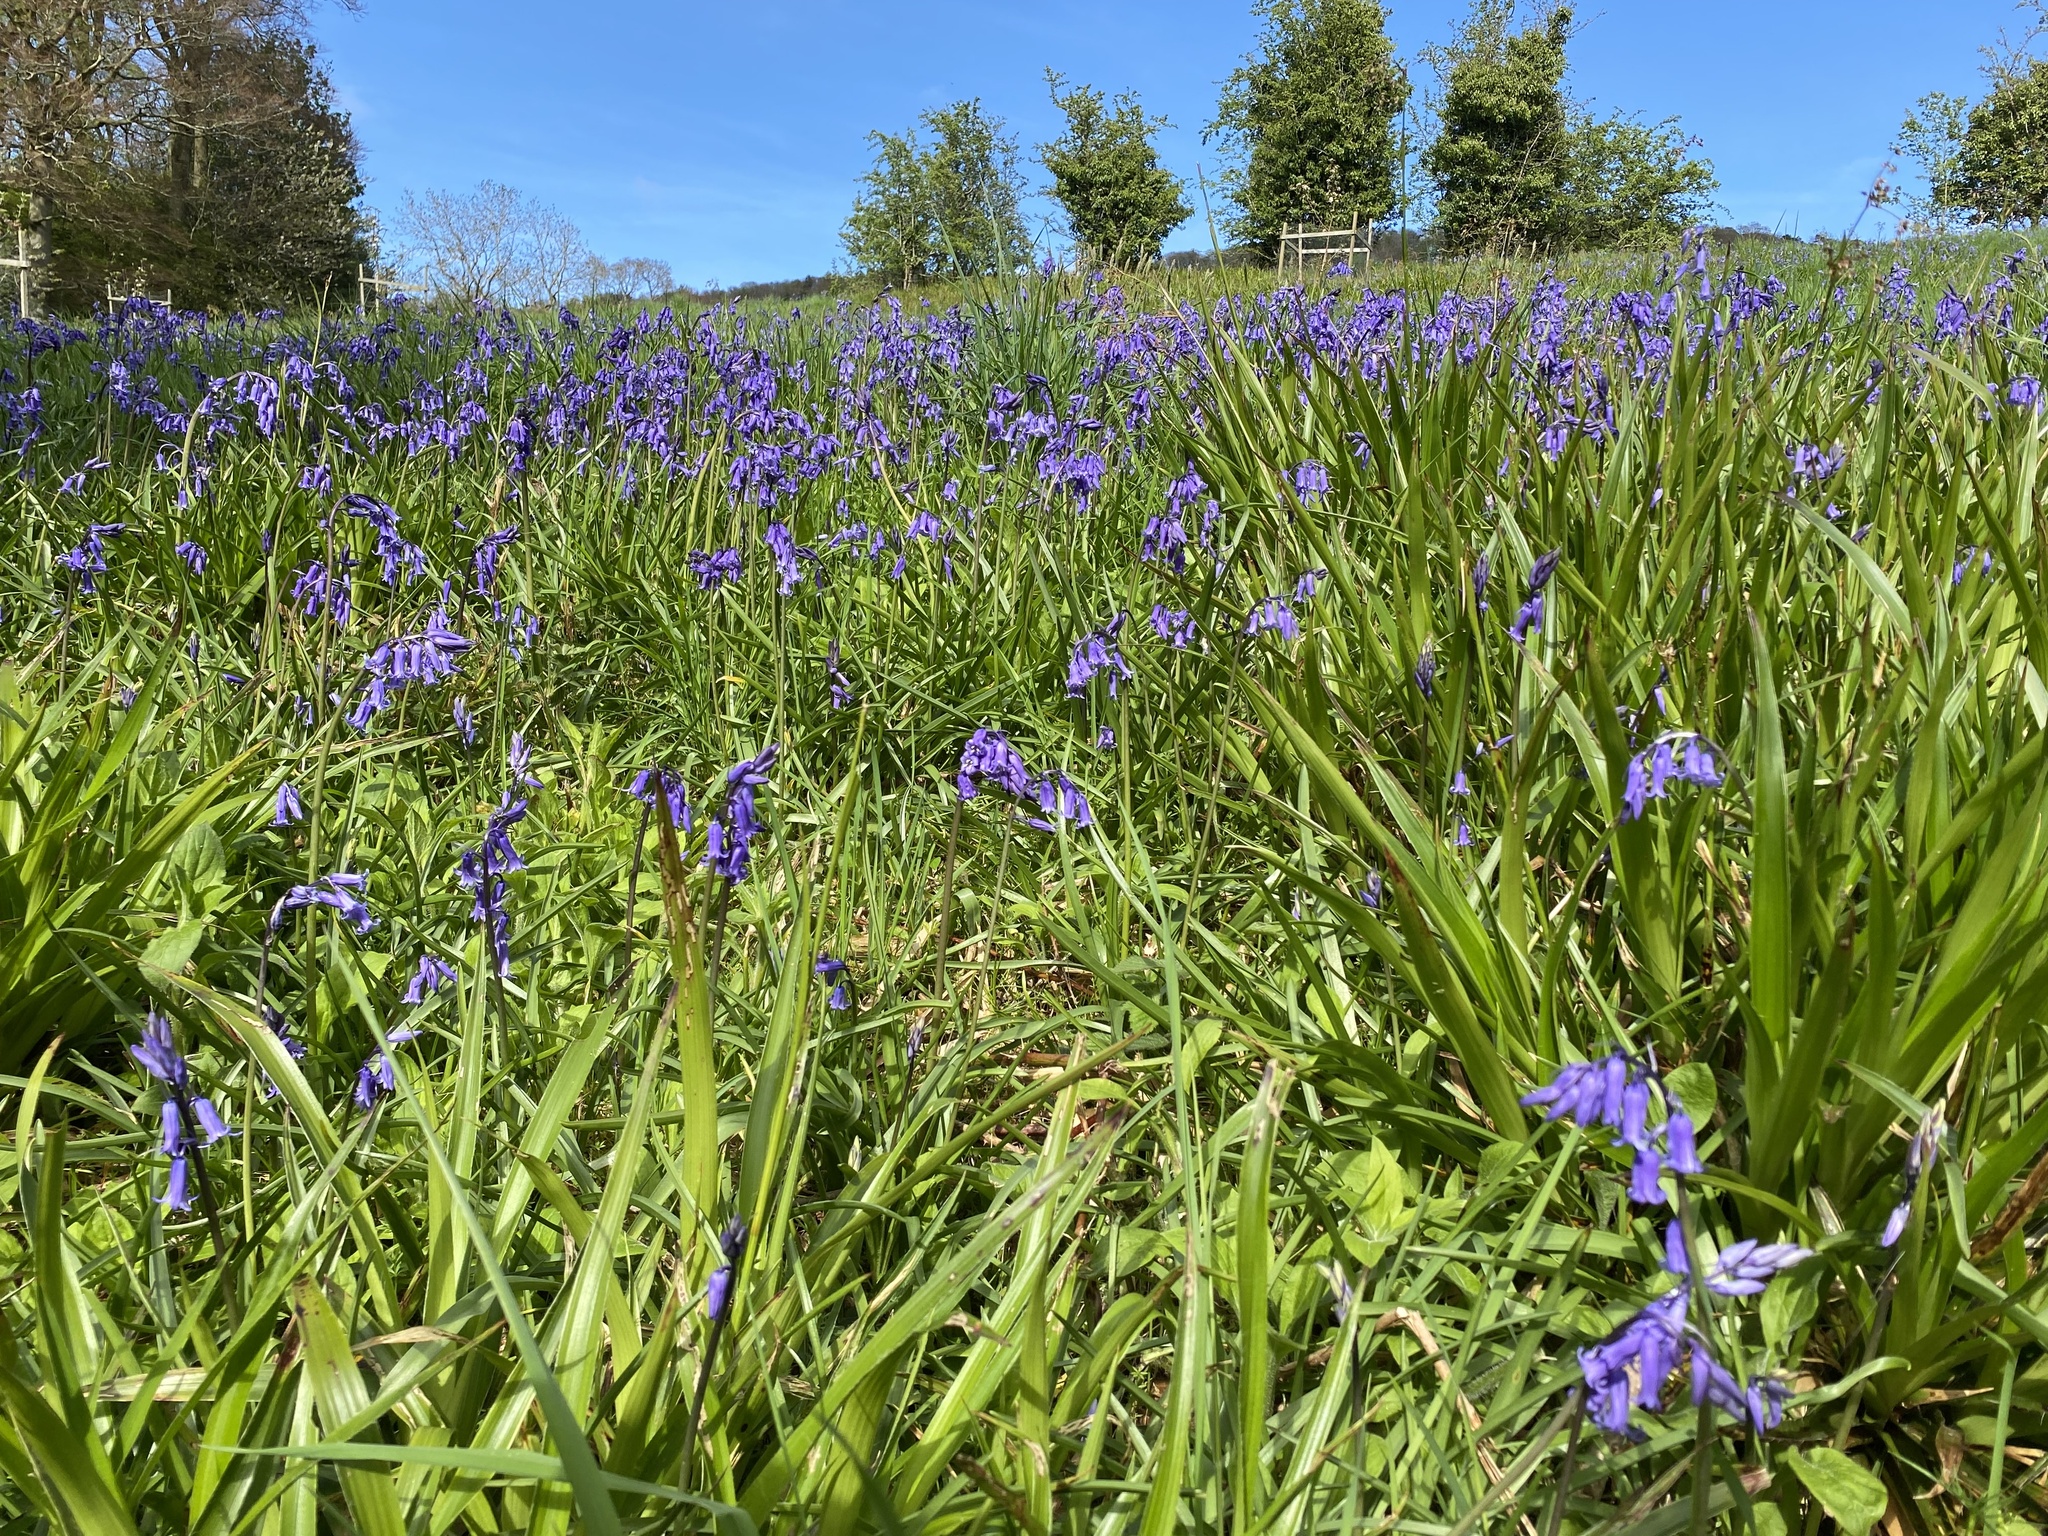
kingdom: Plantae
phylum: Tracheophyta
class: Liliopsida
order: Asparagales
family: Asparagaceae
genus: Hyacinthoides
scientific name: Hyacinthoides non-scripta
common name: Bluebell
